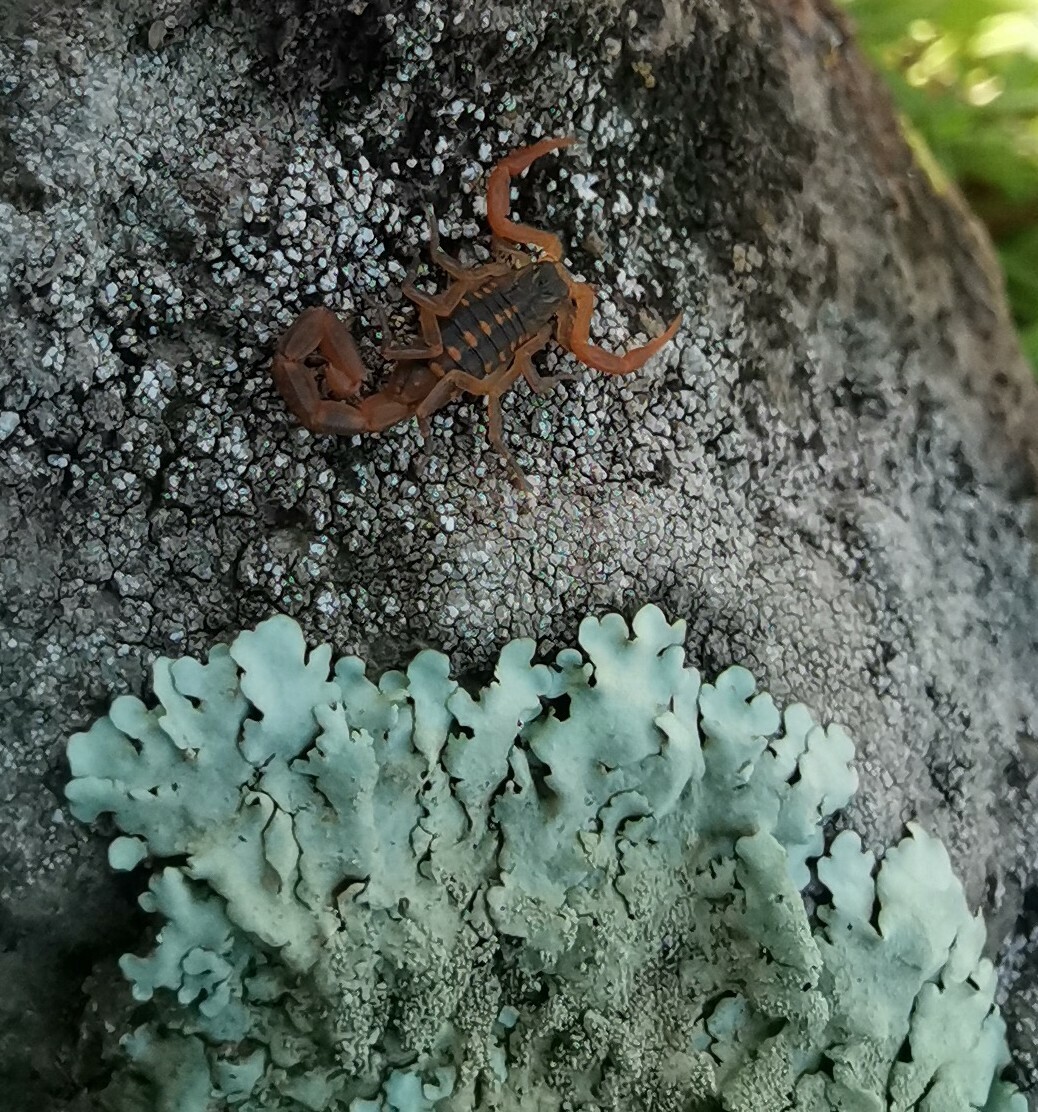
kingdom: Animalia
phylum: Arthropoda
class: Arachnida
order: Scorpiones
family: Buthidae
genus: Centruroides
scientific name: Centruroides ornatus
